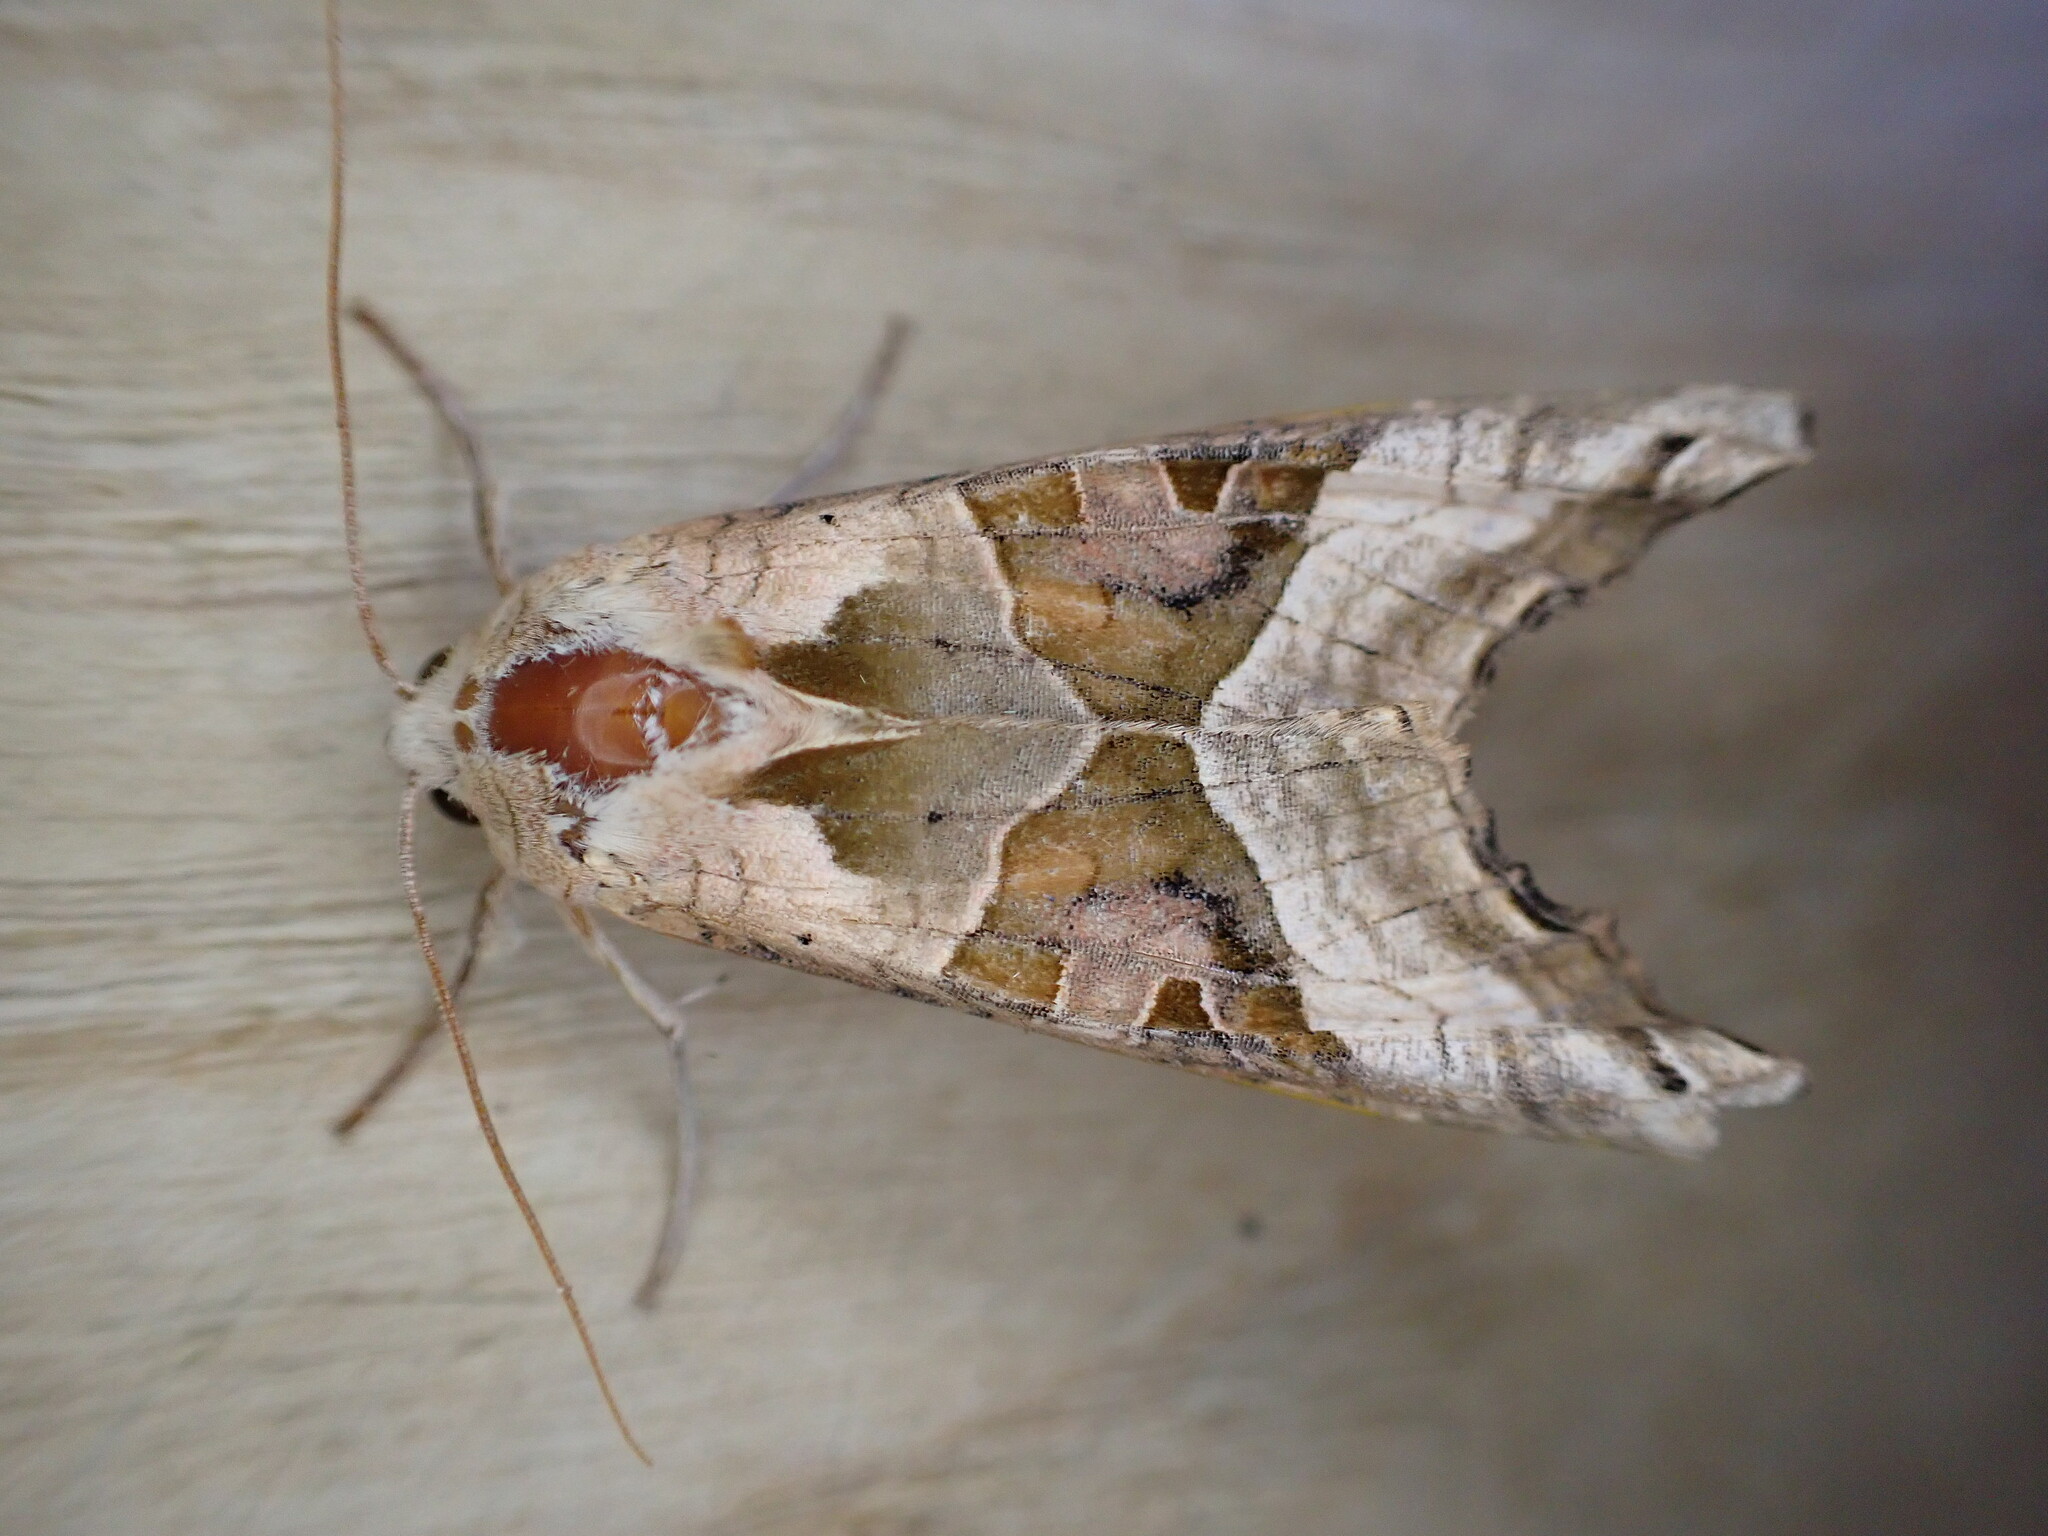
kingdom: Animalia
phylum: Arthropoda
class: Insecta
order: Lepidoptera
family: Noctuidae
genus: Phlogophora
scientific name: Phlogophora meticulosa
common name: Angle shades
